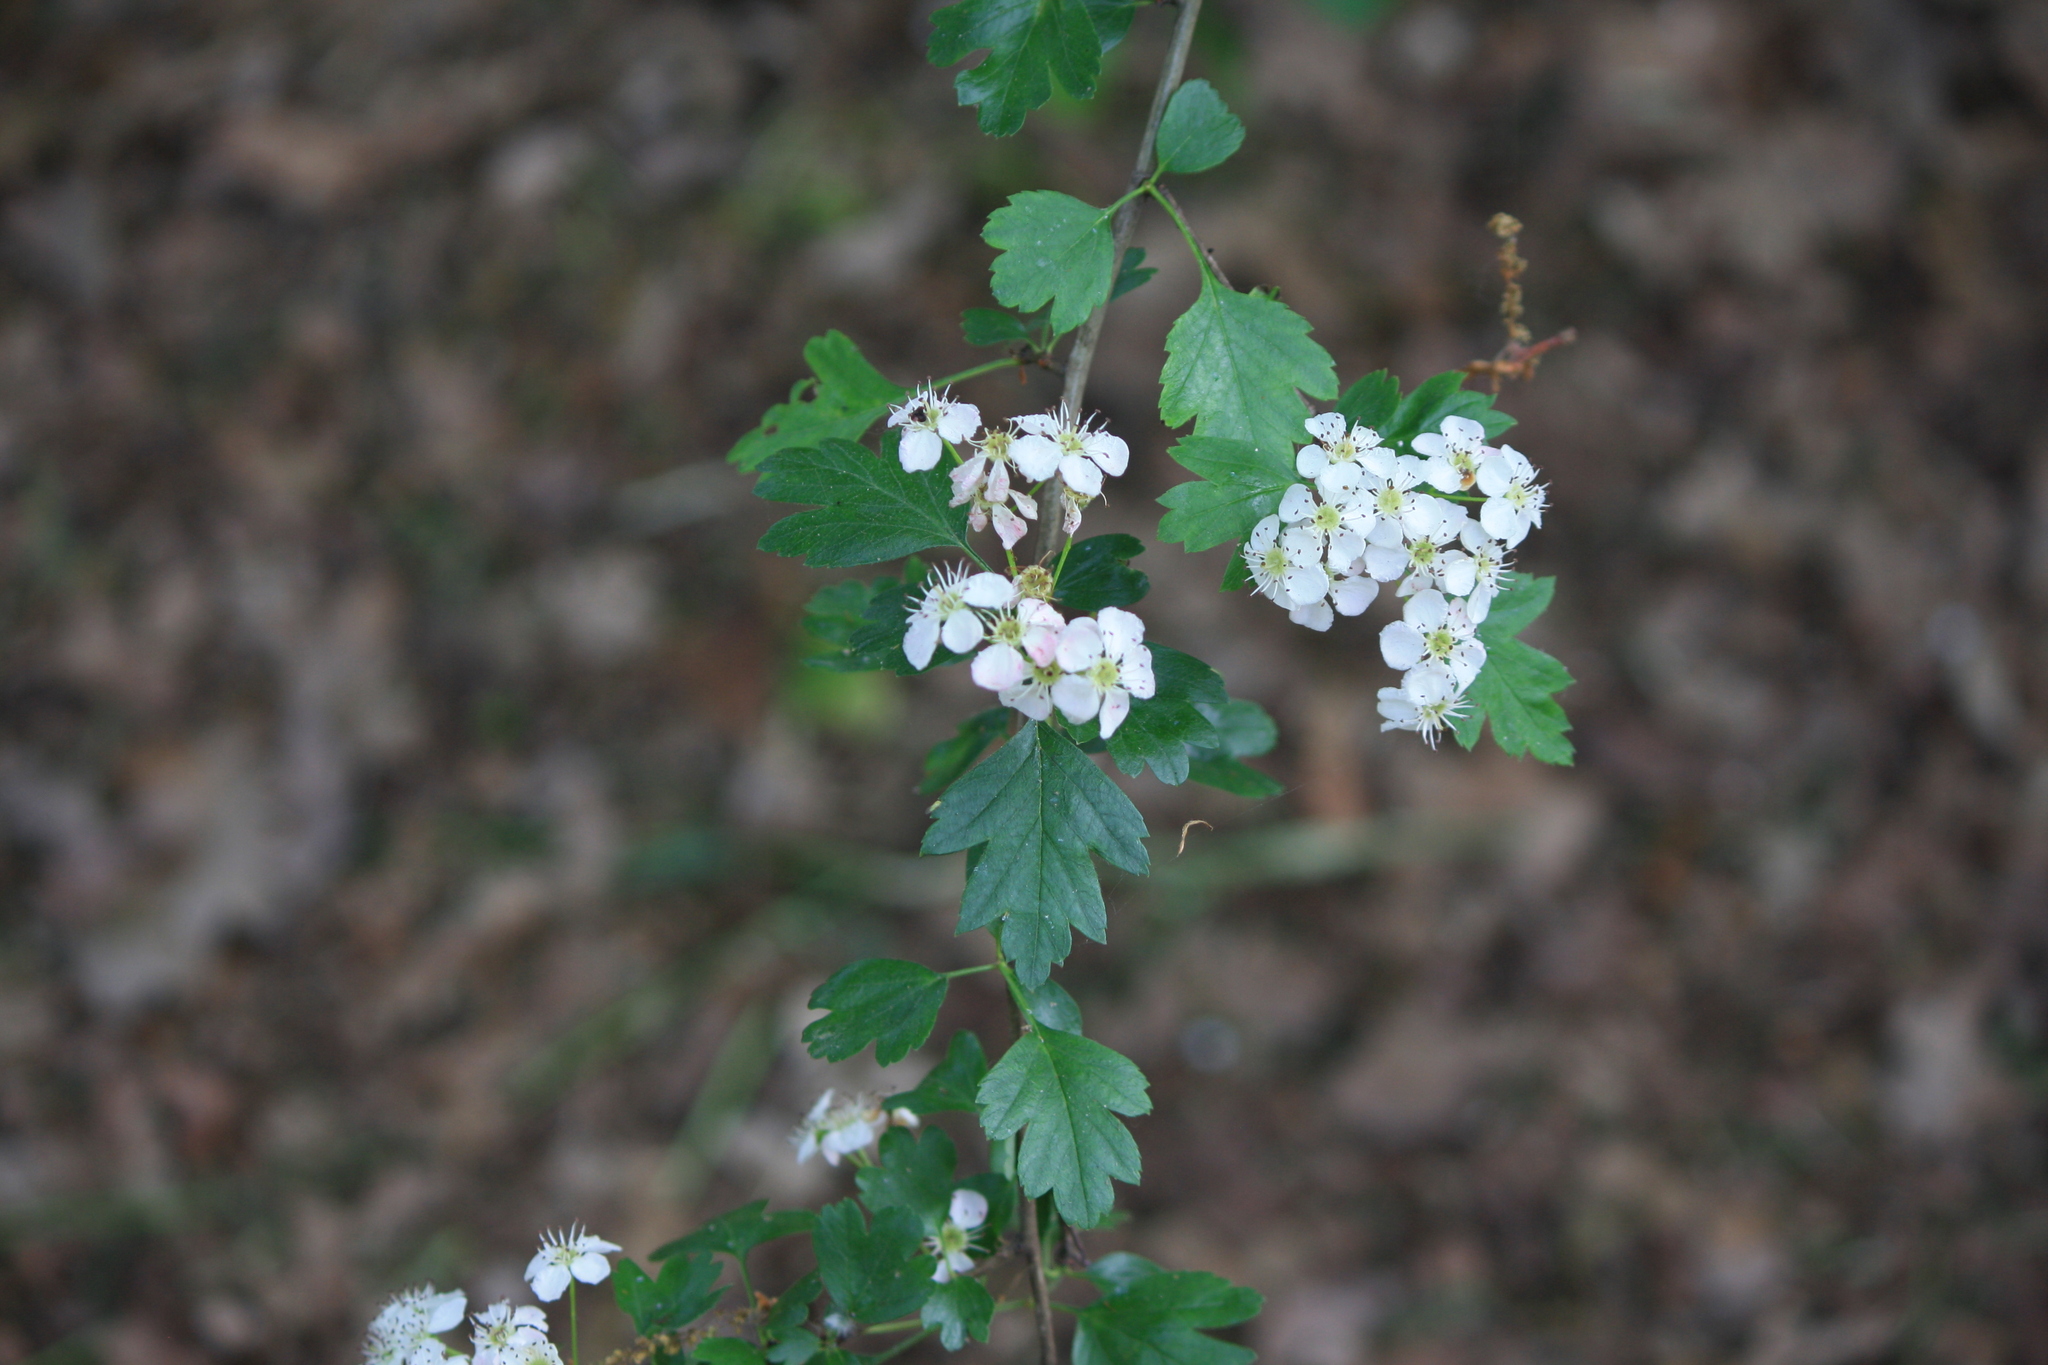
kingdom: Plantae
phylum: Tracheophyta
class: Magnoliopsida
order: Rosales
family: Rosaceae
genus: Crataegus
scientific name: Crataegus monogyna
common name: Hawthorn
